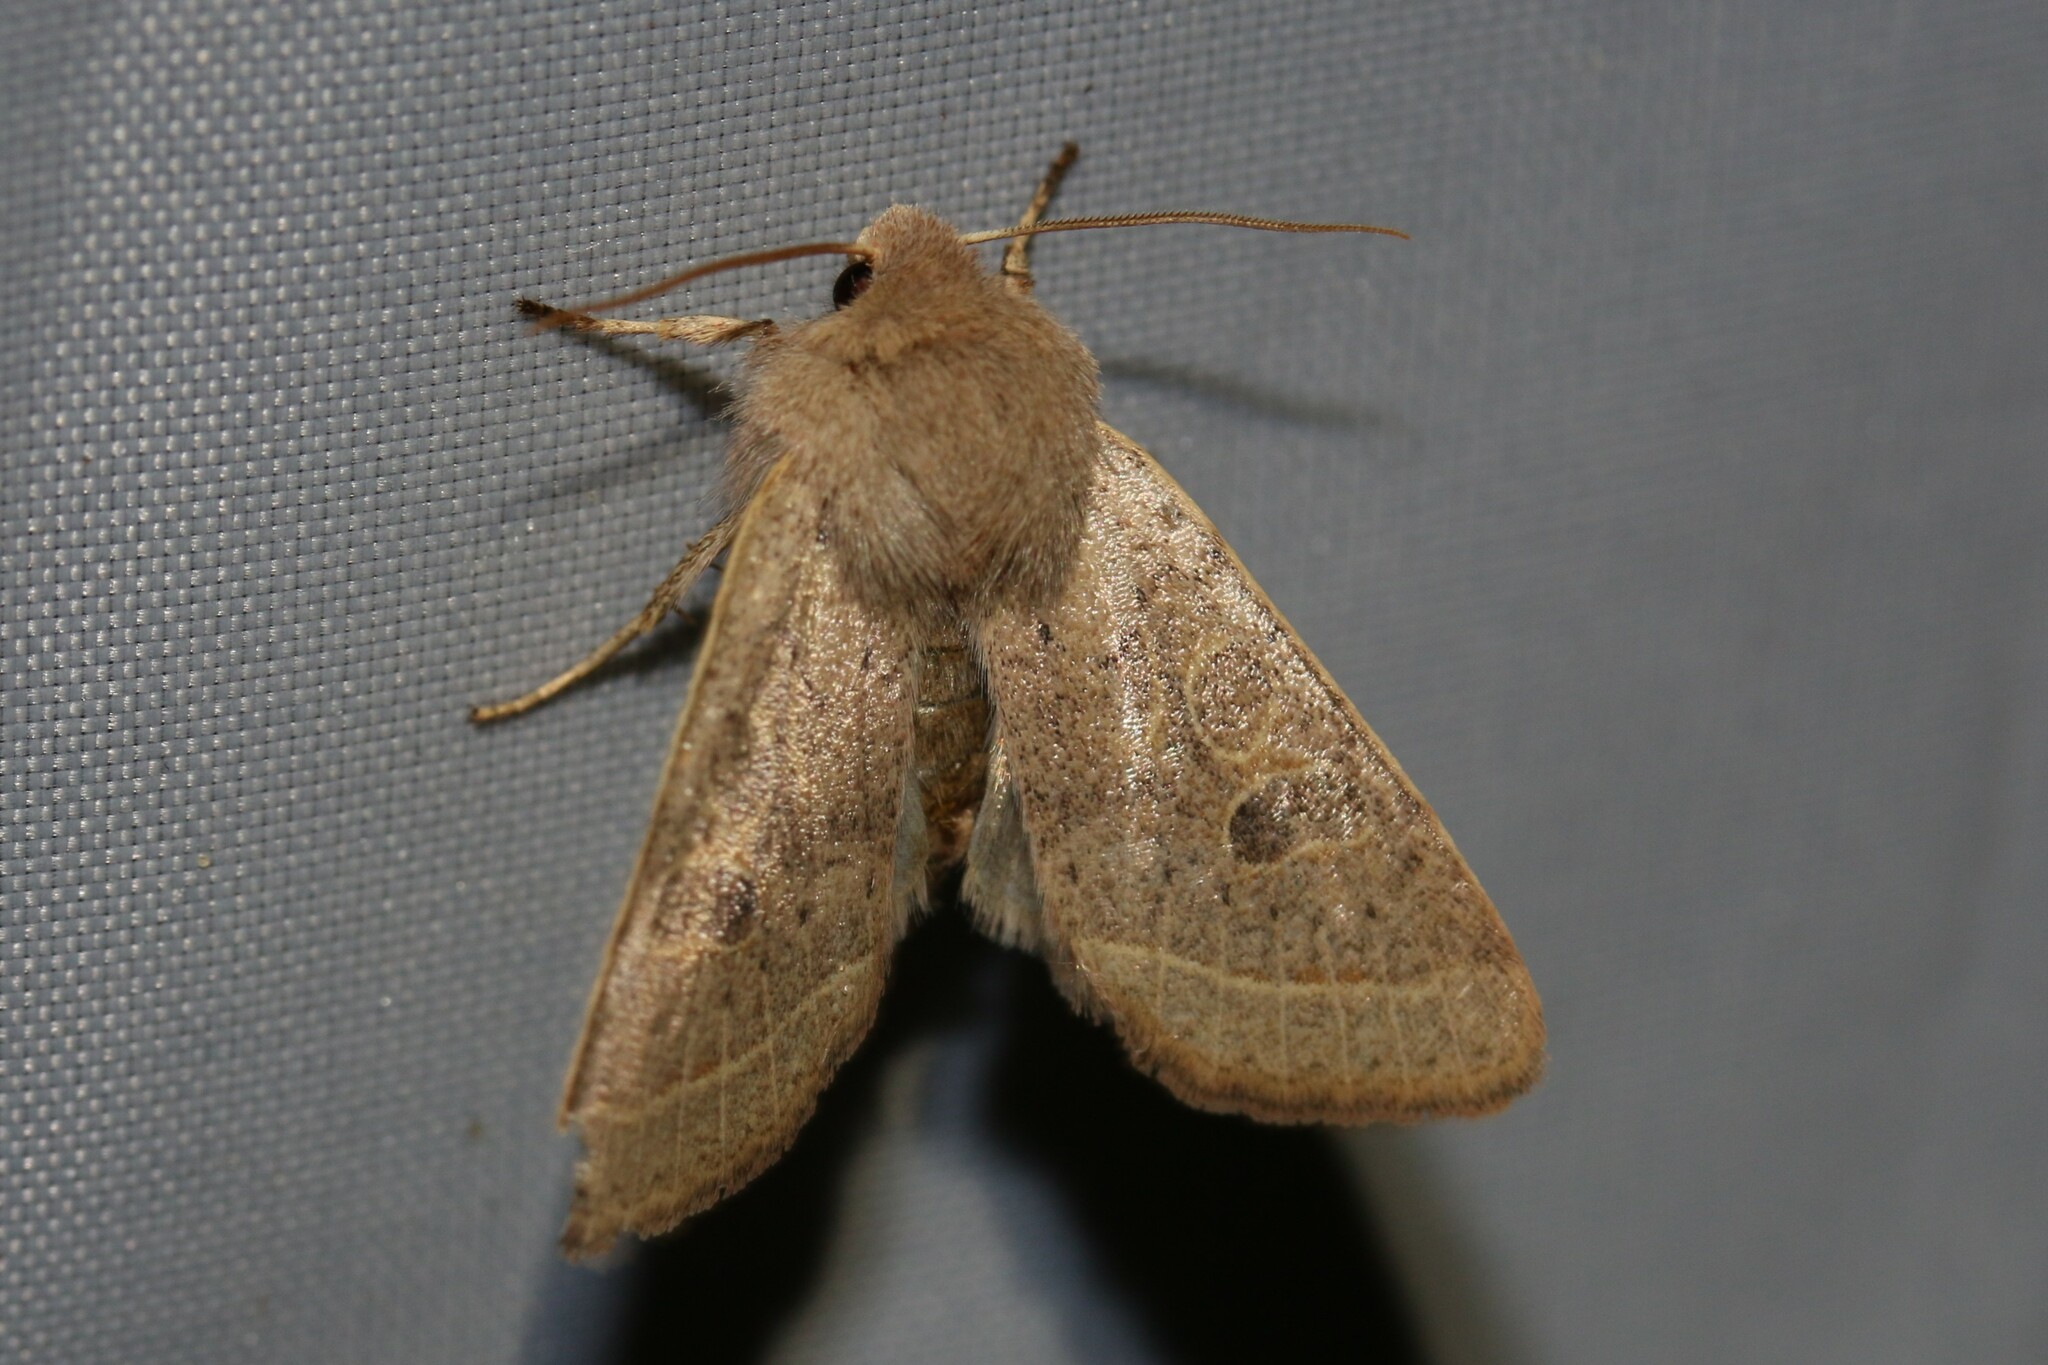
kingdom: Animalia
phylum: Arthropoda
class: Insecta
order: Lepidoptera
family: Noctuidae
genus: Orthosia
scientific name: Orthosia cerasi
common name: Common quaker
